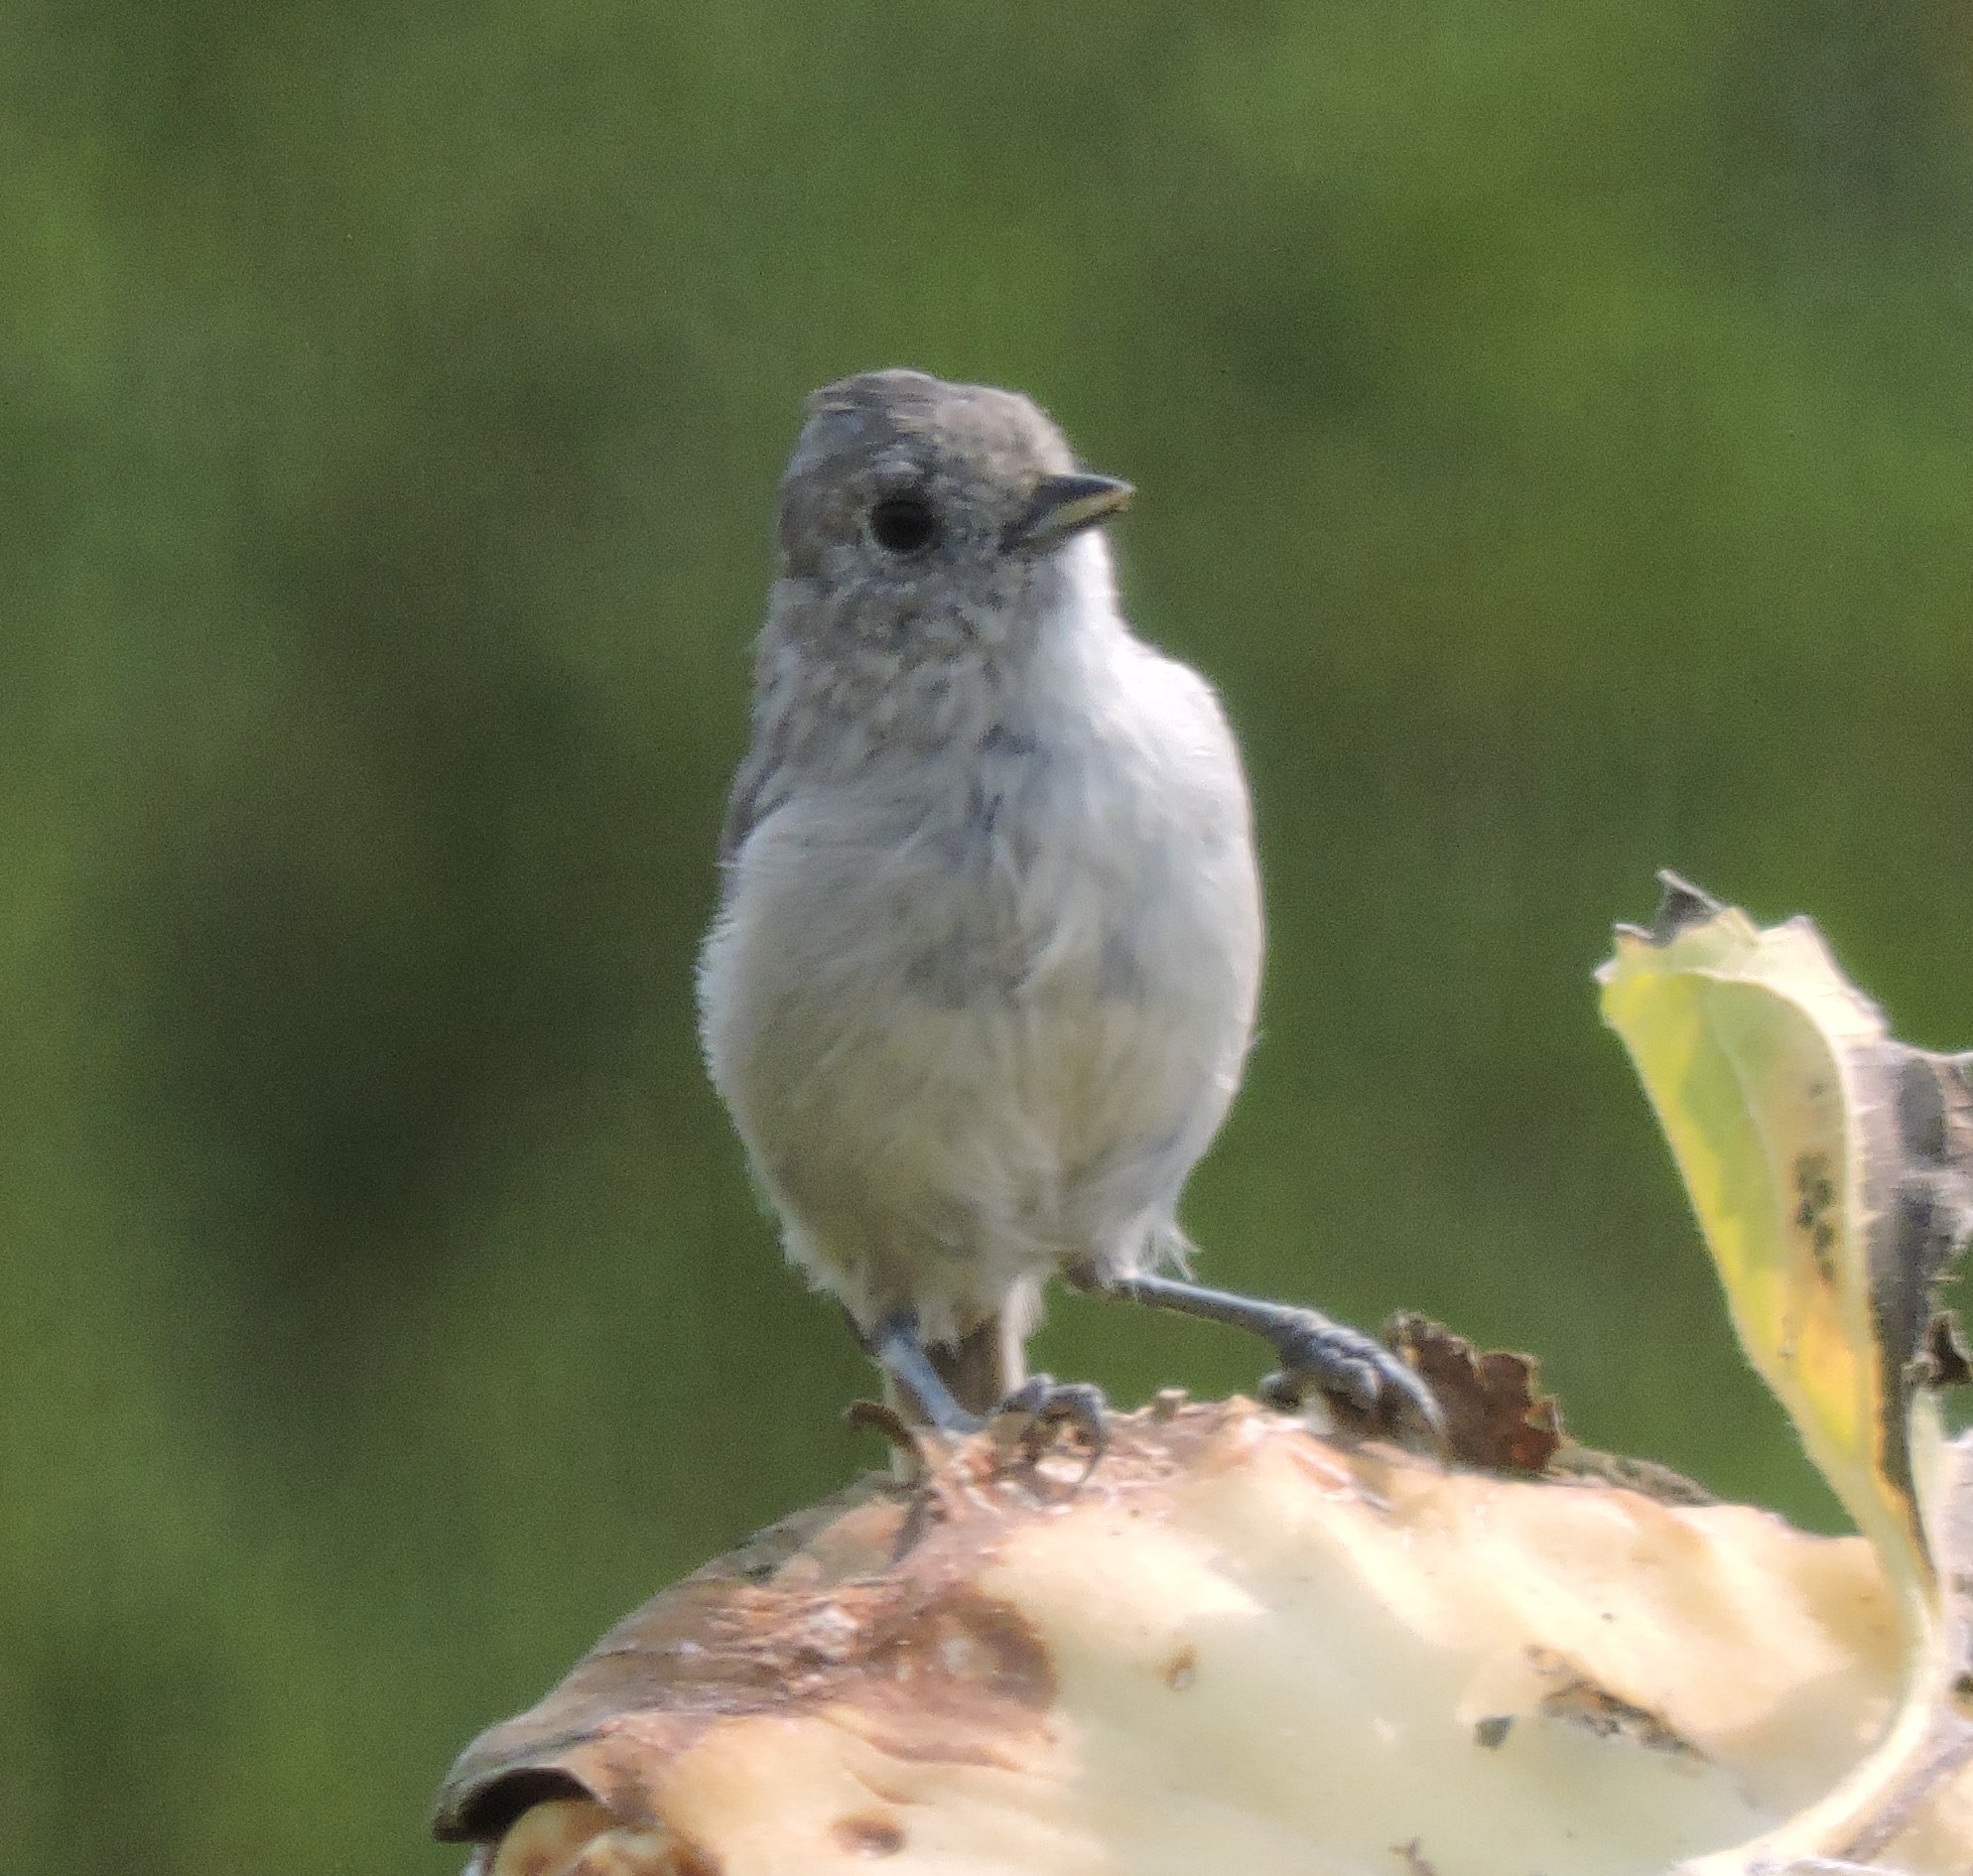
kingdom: Animalia
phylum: Chordata
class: Aves
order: Passeriformes
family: Paridae
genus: Baeolophus
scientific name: Baeolophus inornatus
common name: Oak titmouse
